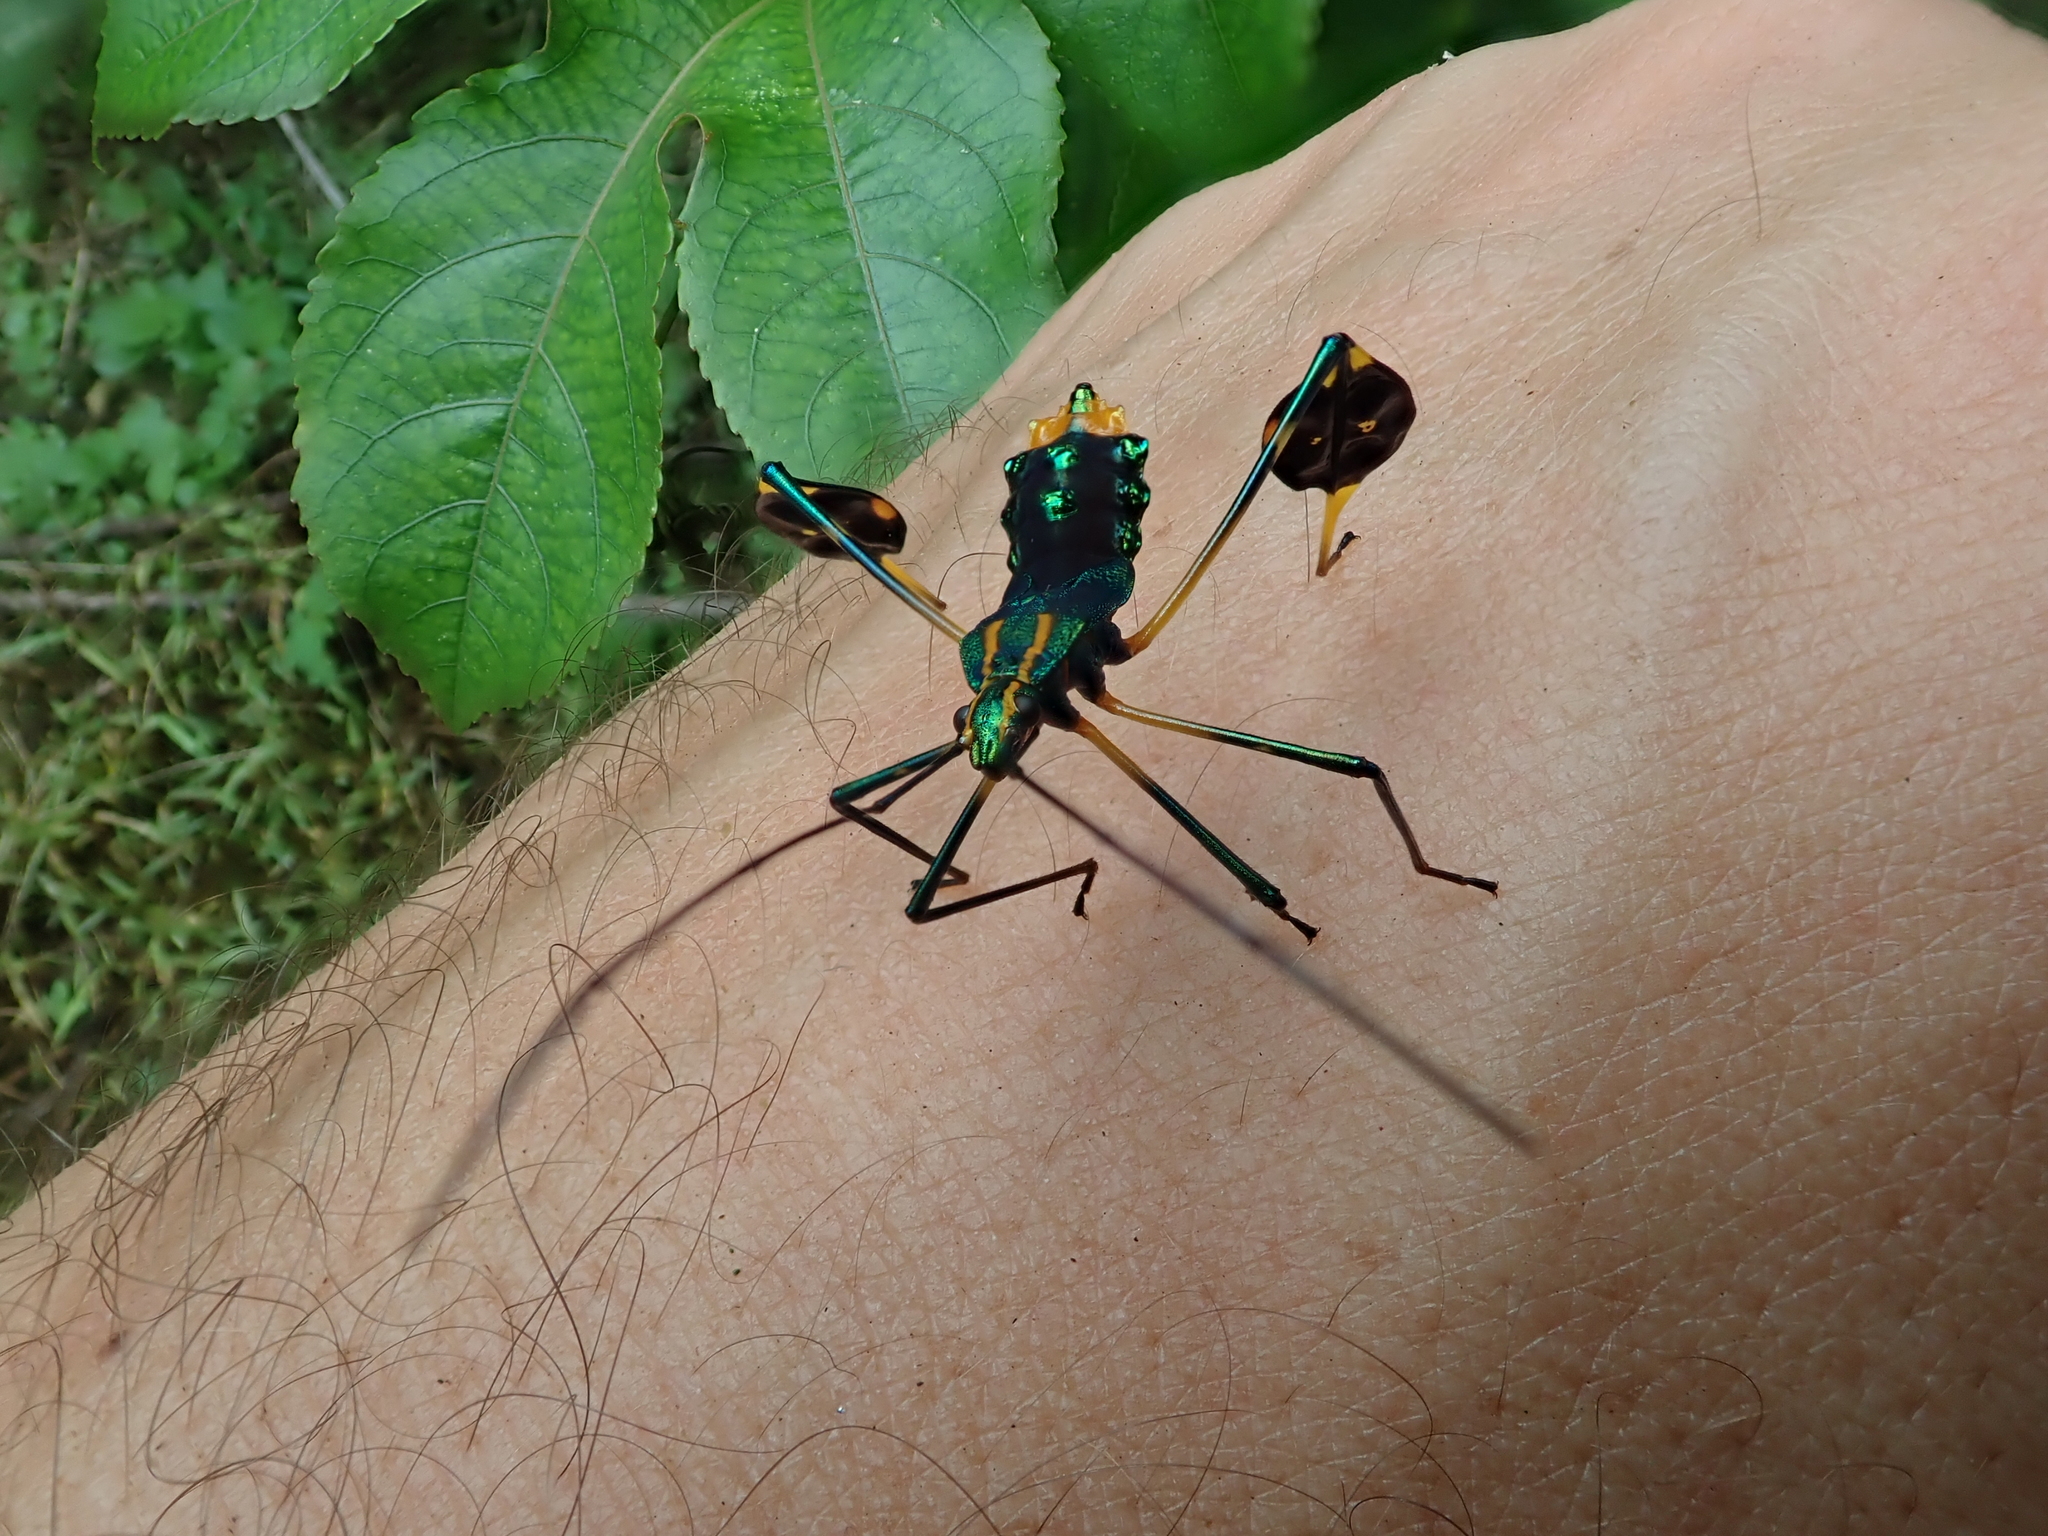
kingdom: Animalia
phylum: Arthropoda
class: Insecta
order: Hemiptera
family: Coreidae
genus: Diactor
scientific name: Diactor bilineatus
